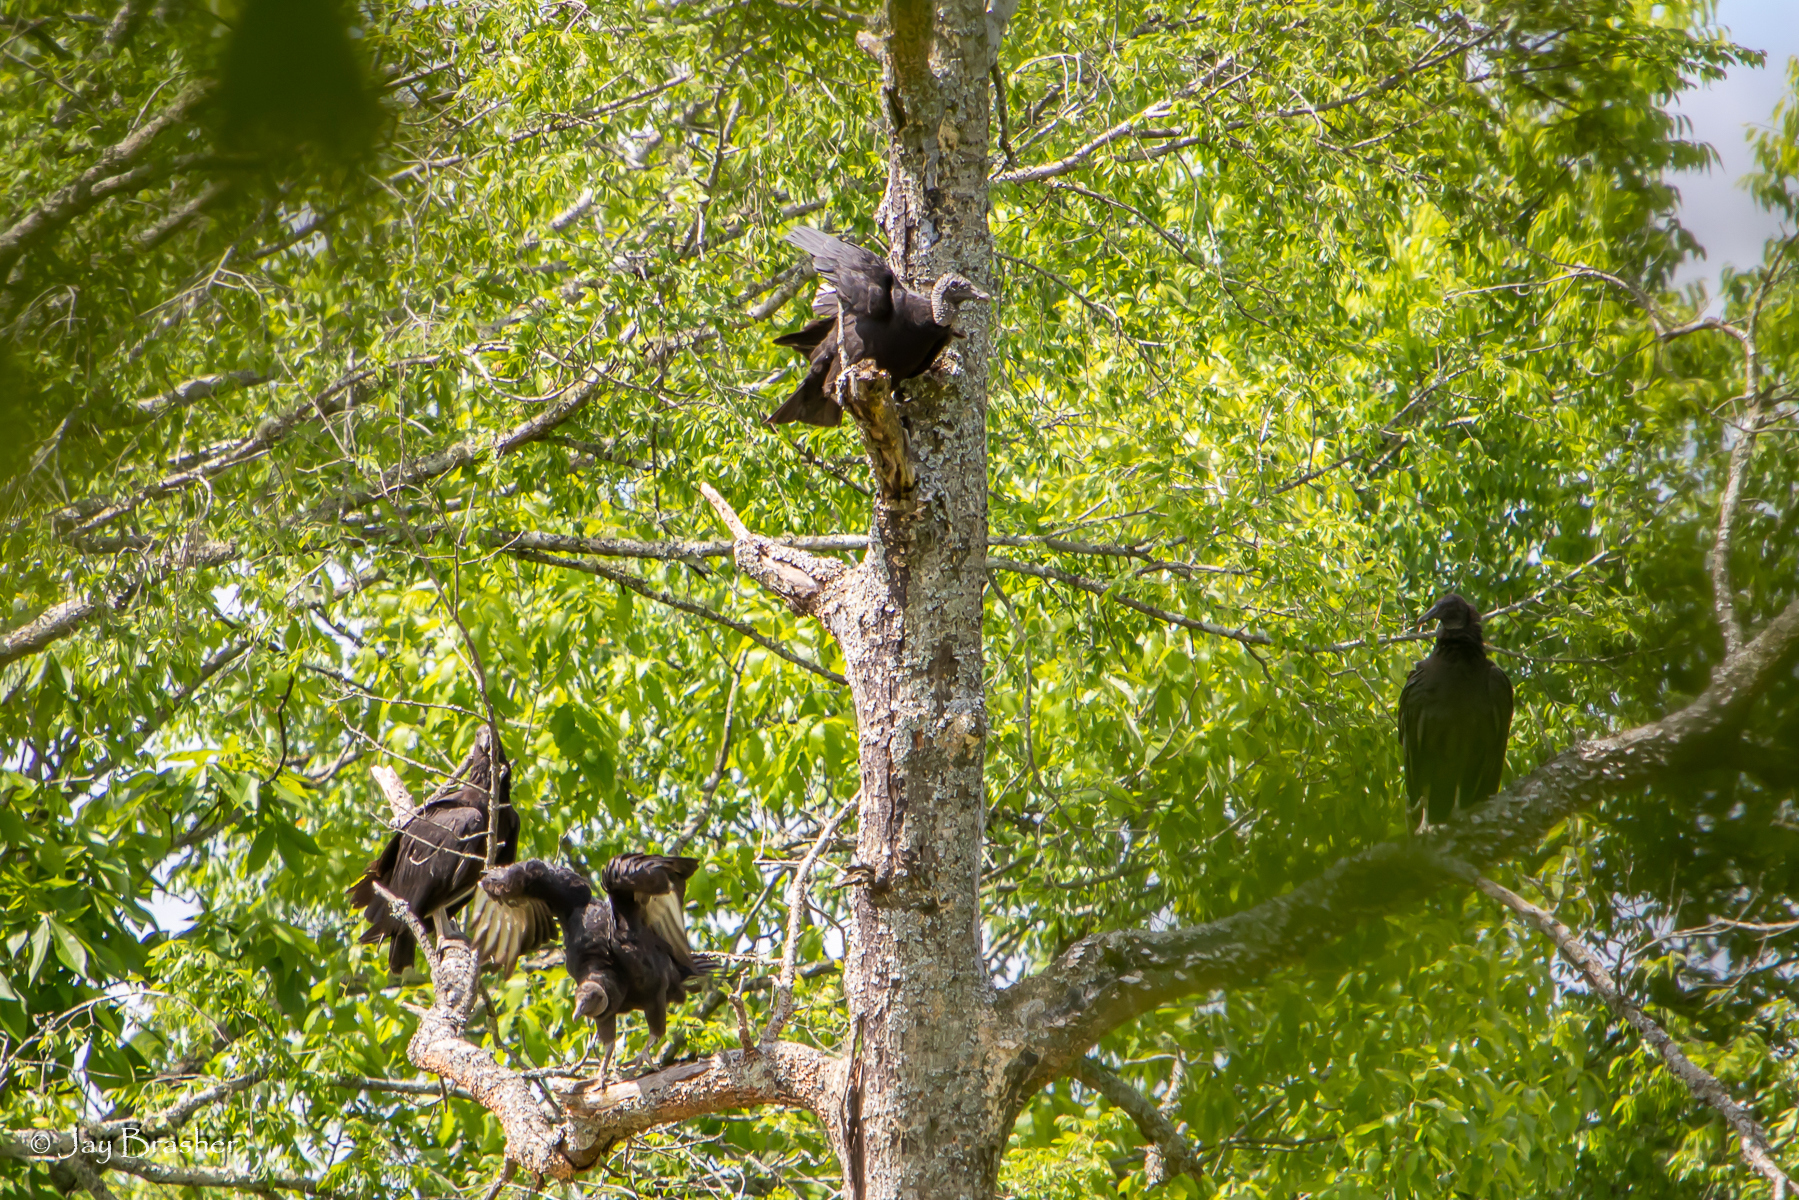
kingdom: Animalia
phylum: Chordata
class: Aves
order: Accipitriformes
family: Cathartidae
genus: Coragyps
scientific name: Coragyps atratus
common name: Black vulture
